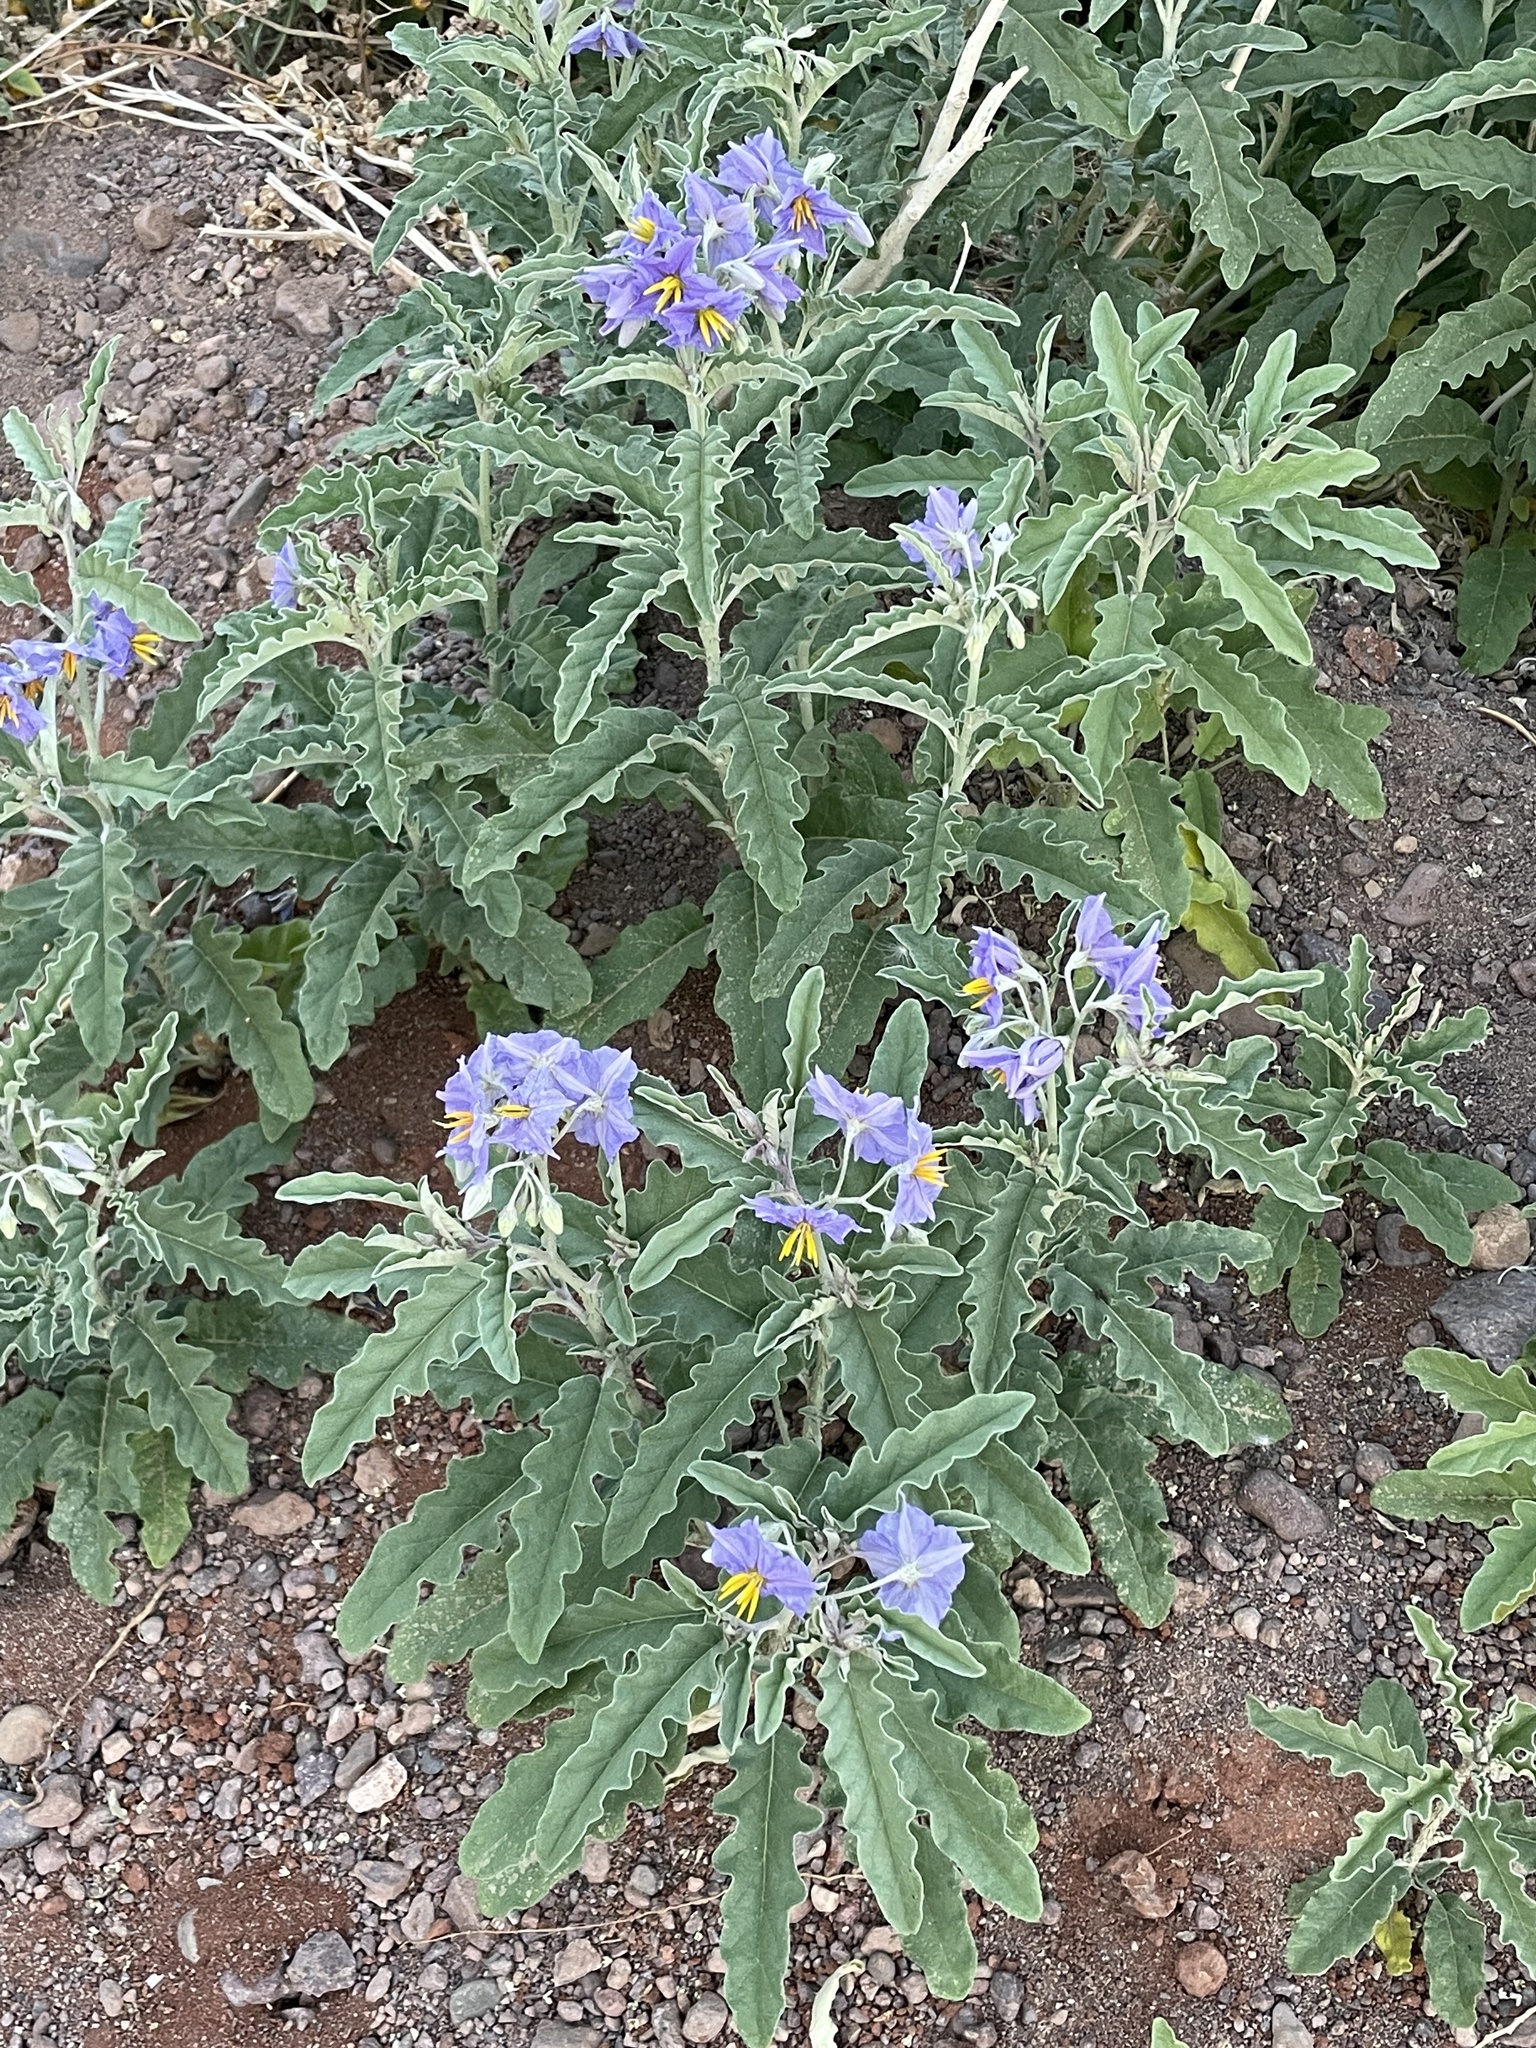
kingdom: Plantae
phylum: Tracheophyta
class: Magnoliopsida
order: Solanales
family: Solanaceae
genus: Solanum
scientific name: Solanum elaeagnifolium
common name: Silverleaf nightshade
